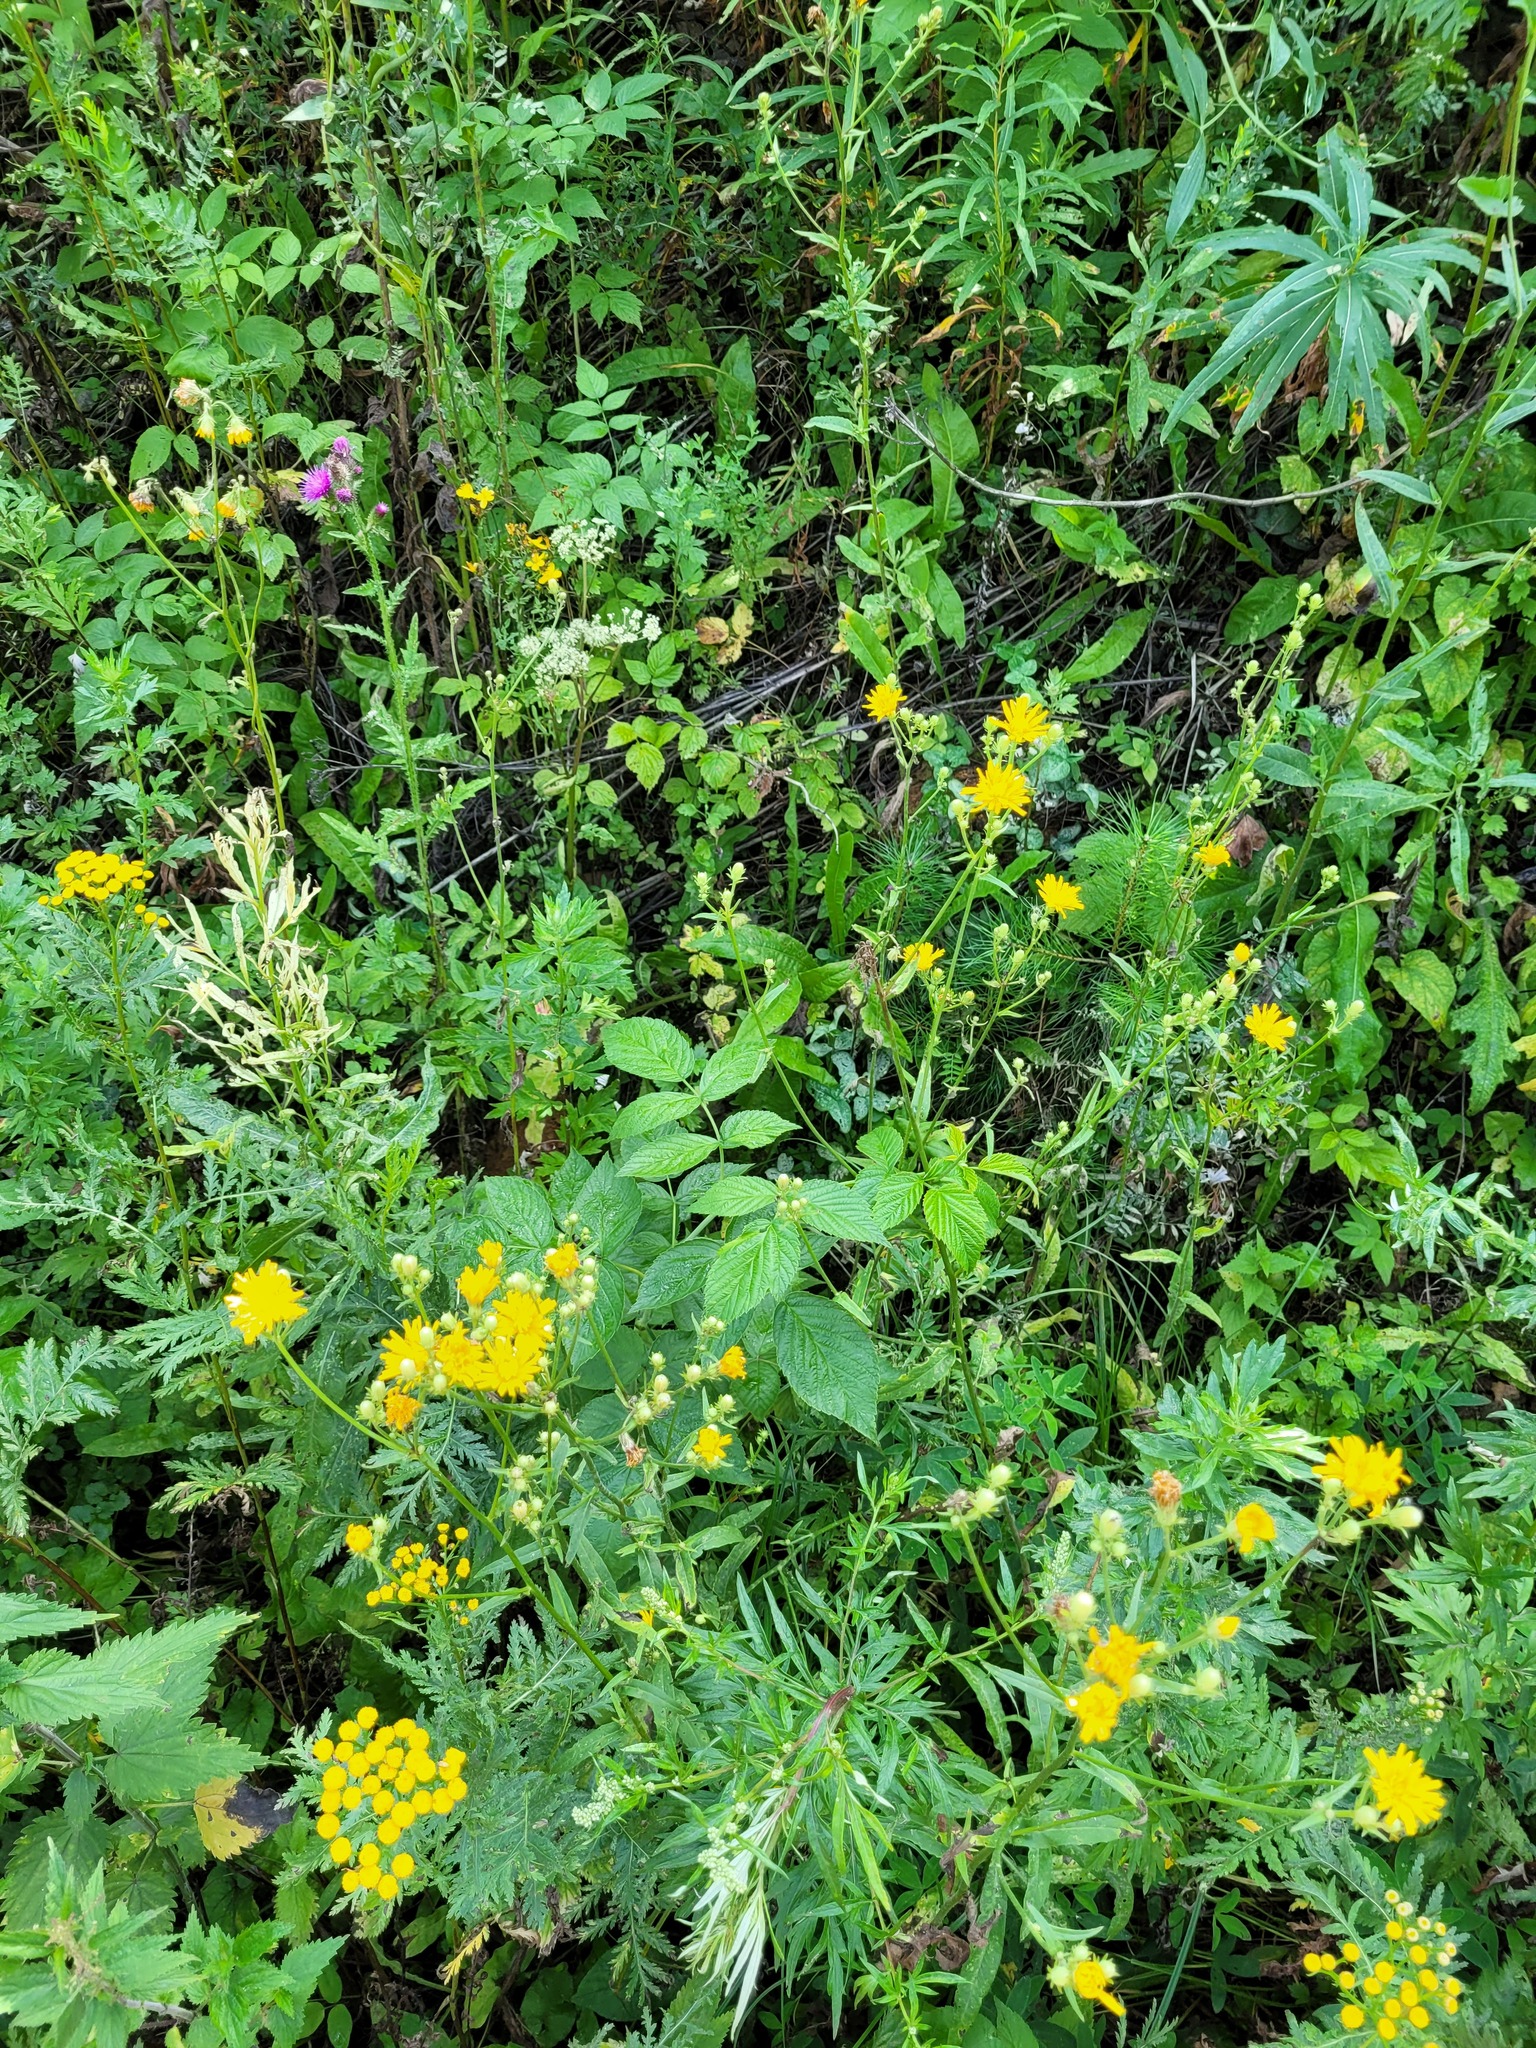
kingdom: Plantae
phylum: Tracheophyta
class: Magnoliopsida
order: Rosales
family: Rosaceae
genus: Rubus
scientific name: Rubus idaeus
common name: Raspberry
